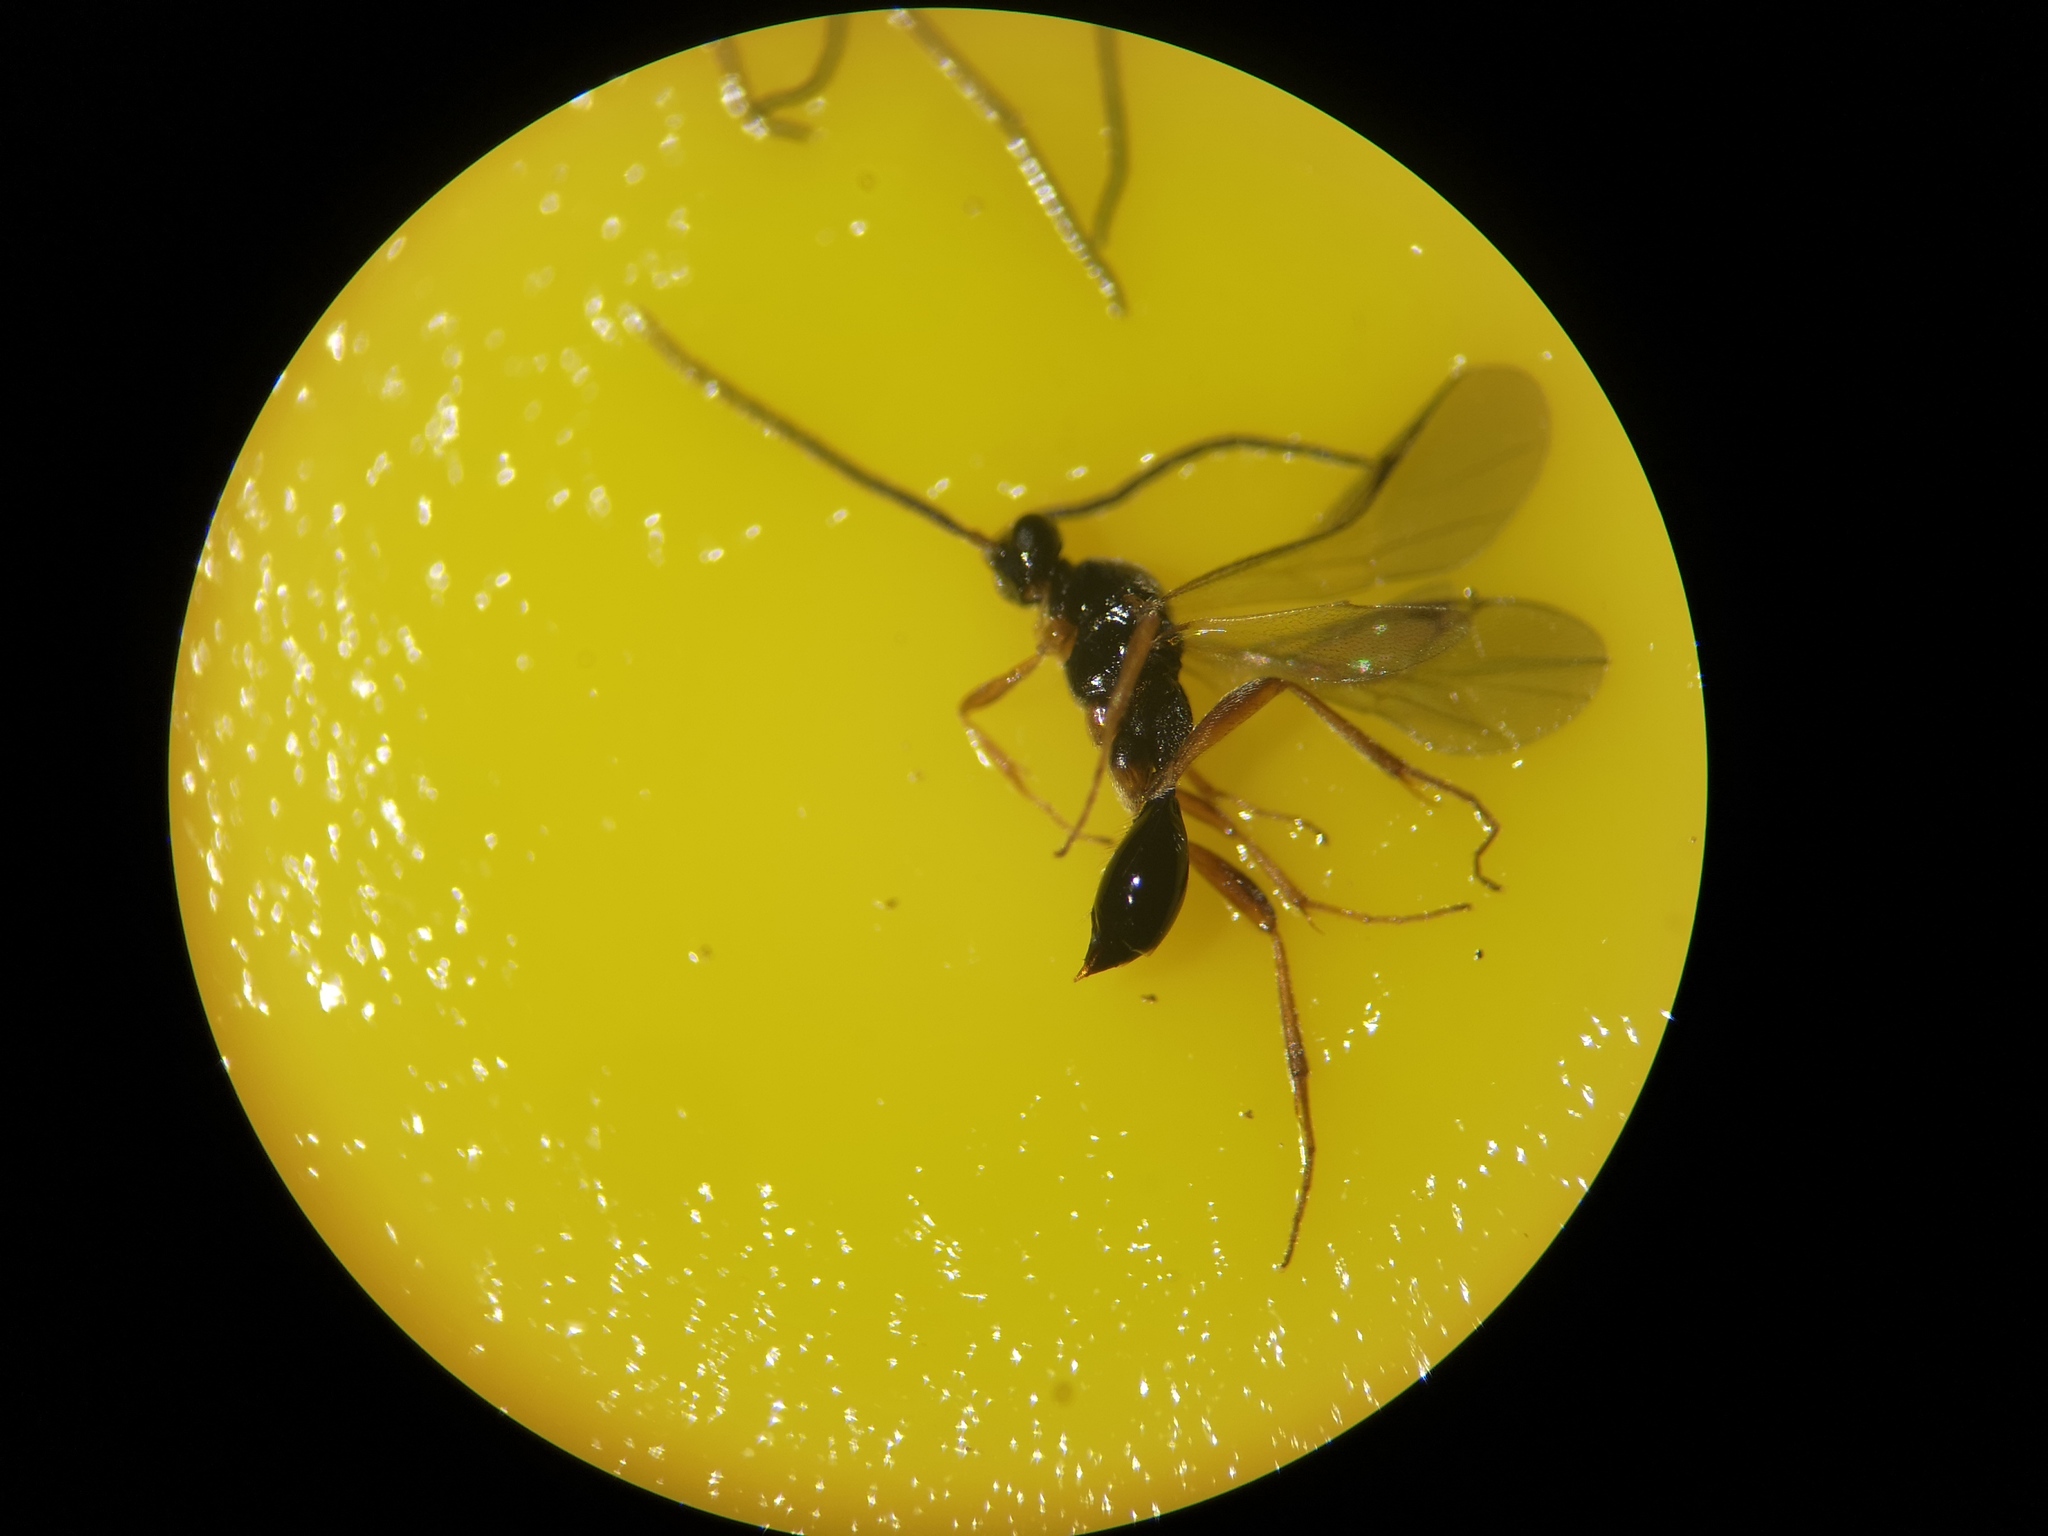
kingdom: Animalia
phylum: Arthropoda
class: Insecta
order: Hymenoptera
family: Proctotrupidae
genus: Phaneroserphus
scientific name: Phaneroserphus calcar
